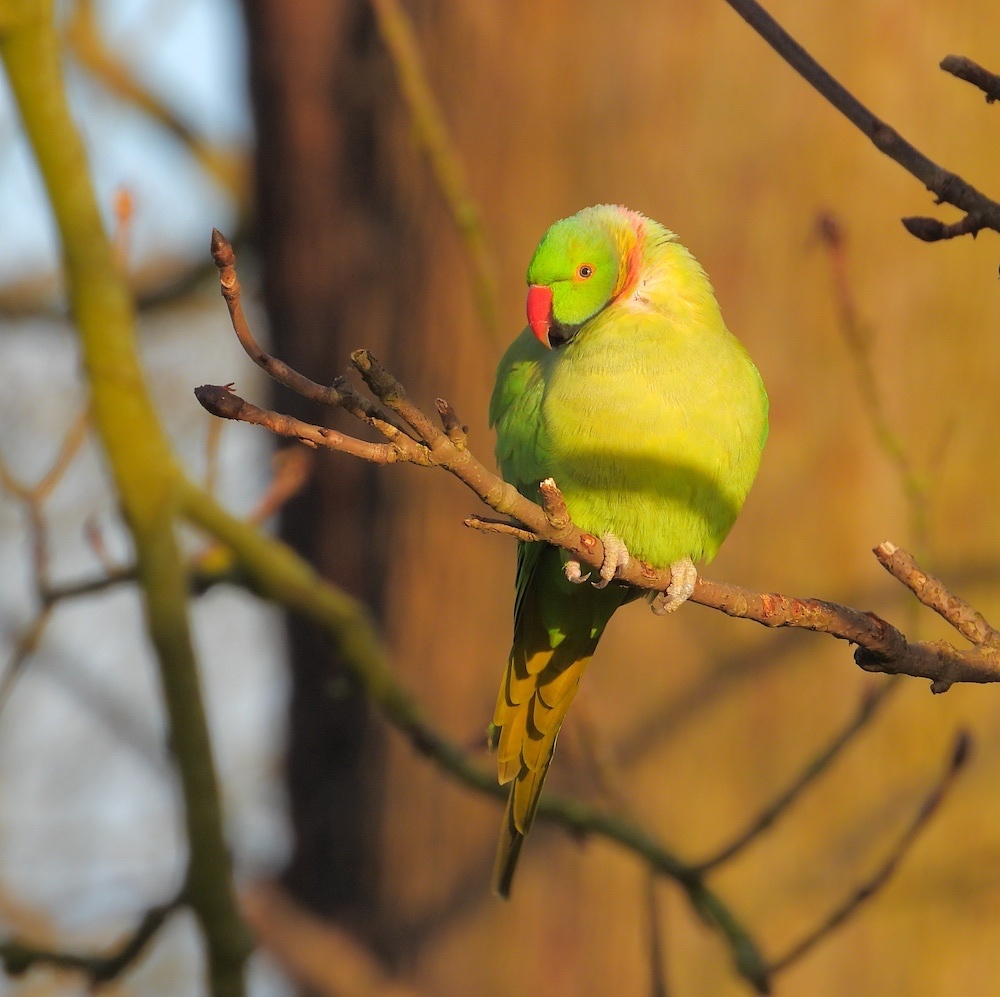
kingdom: Animalia
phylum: Chordata
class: Aves
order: Psittaciformes
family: Psittacidae
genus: Psittacula
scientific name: Psittacula krameri
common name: Rose-ringed parakeet
